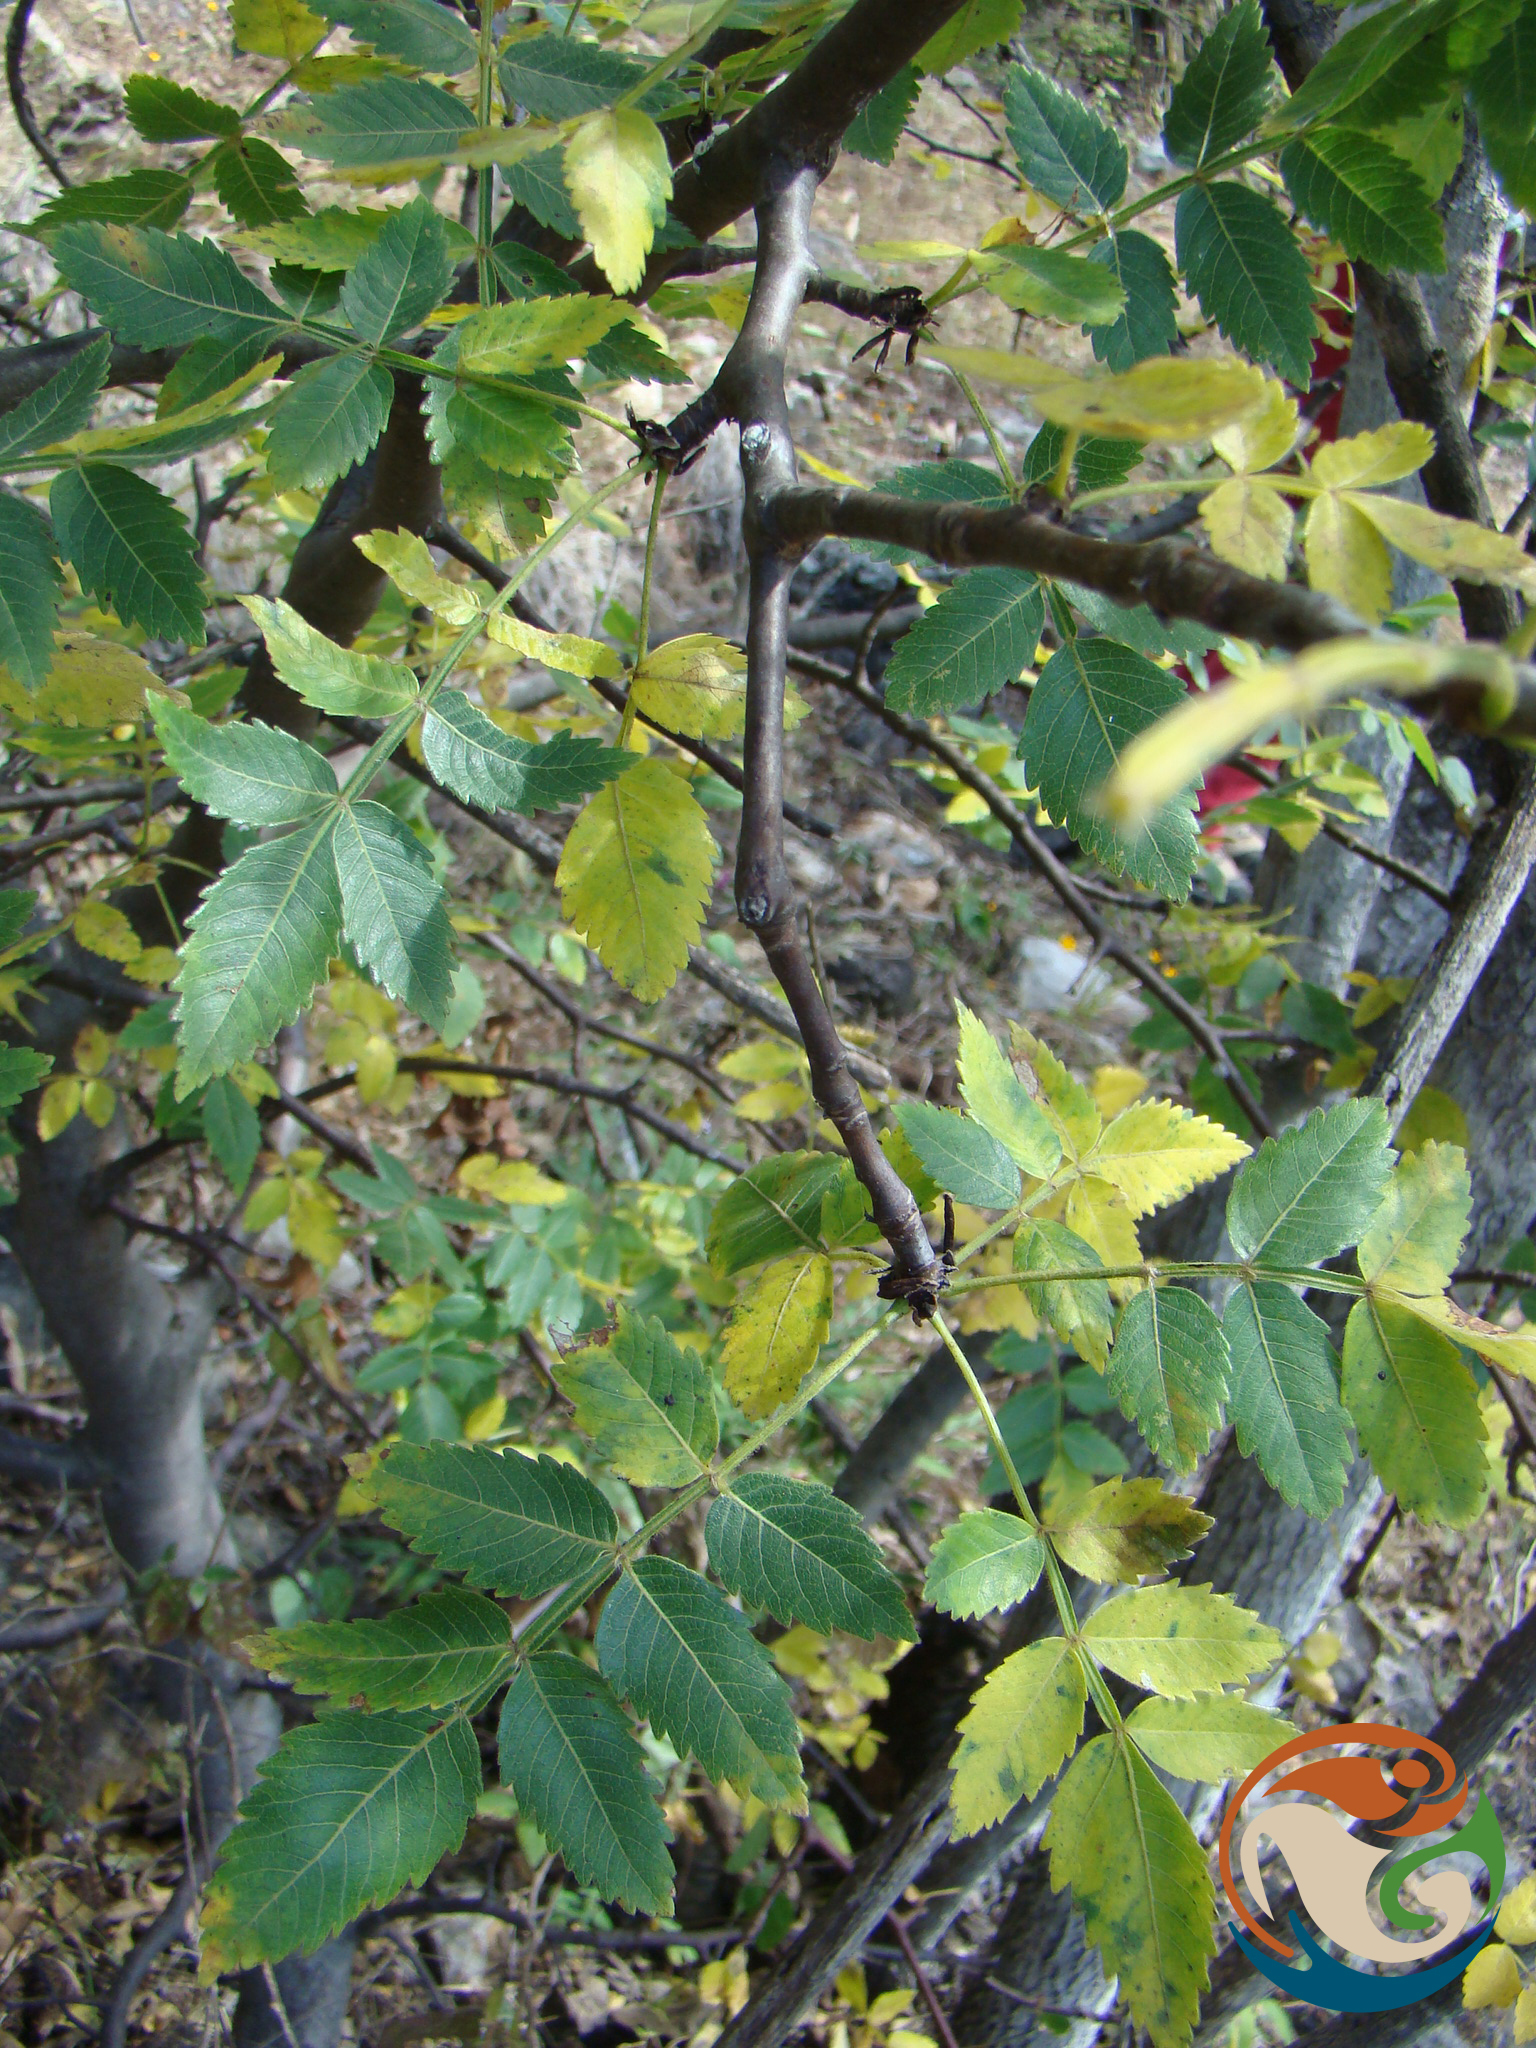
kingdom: Plantae
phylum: Tracheophyta
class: Magnoliopsida
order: Sapindales
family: Burseraceae
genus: Bursera
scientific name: Bursera linanoe
